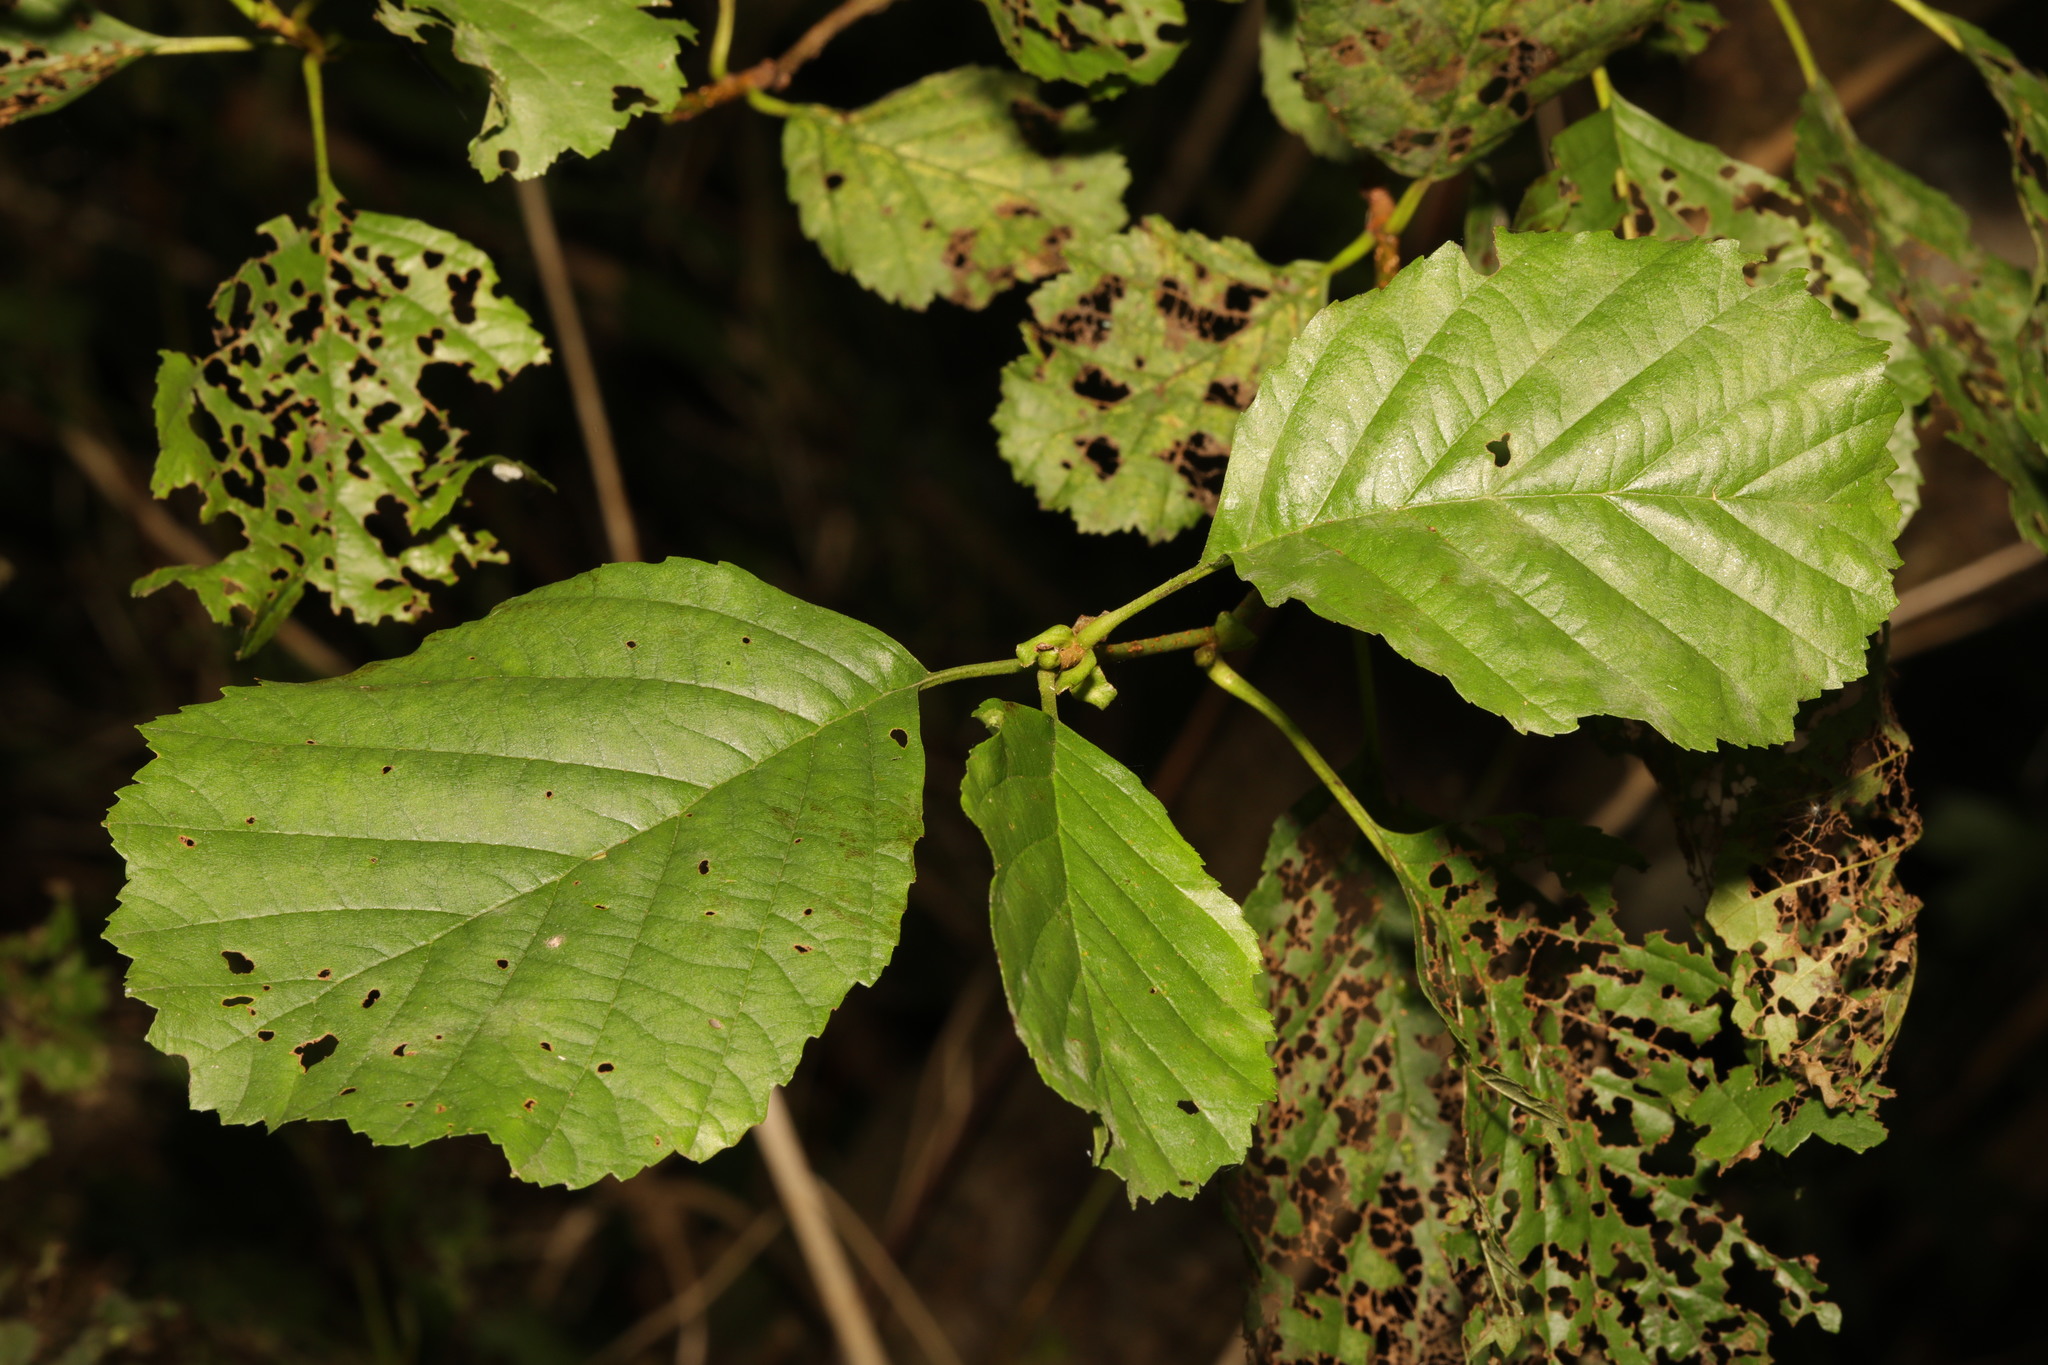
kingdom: Plantae
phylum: Tracheophyta
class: Magnoliopsida
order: Fagales
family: Betulaceae
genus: Alnus
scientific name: Alnus glutinosa
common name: Black alder
